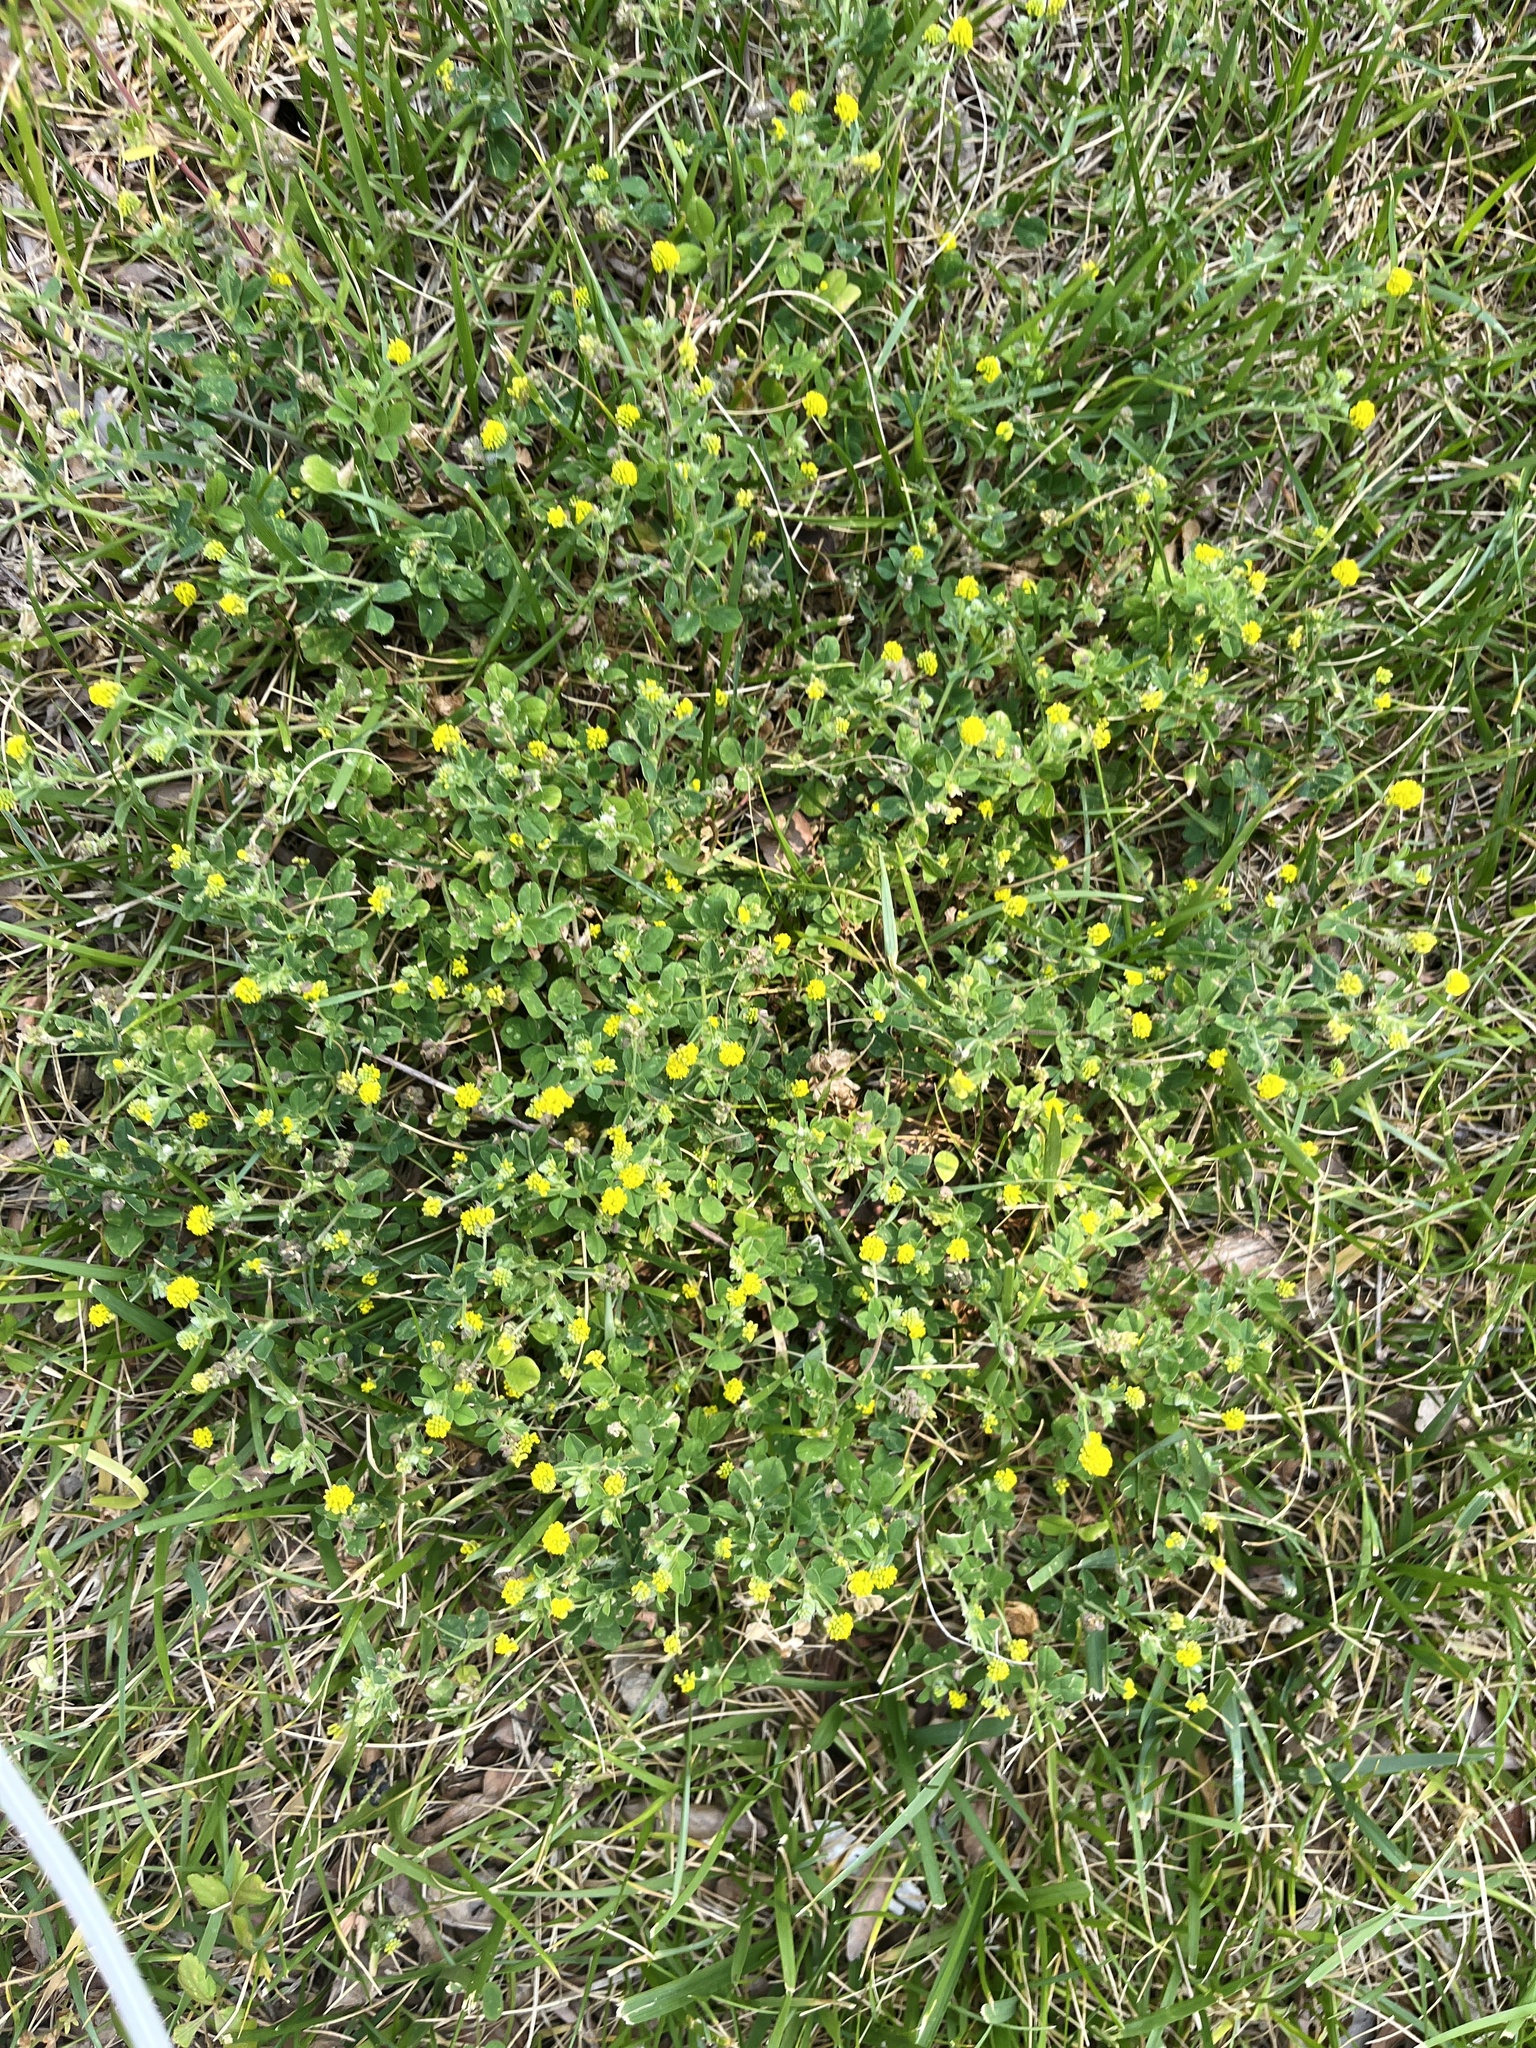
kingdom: Plantae
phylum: Tracheophyta
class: Magnoliopsida
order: Fabales
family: Fabaceae
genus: Medicago
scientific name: Medicago lupulina
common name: Black medick
